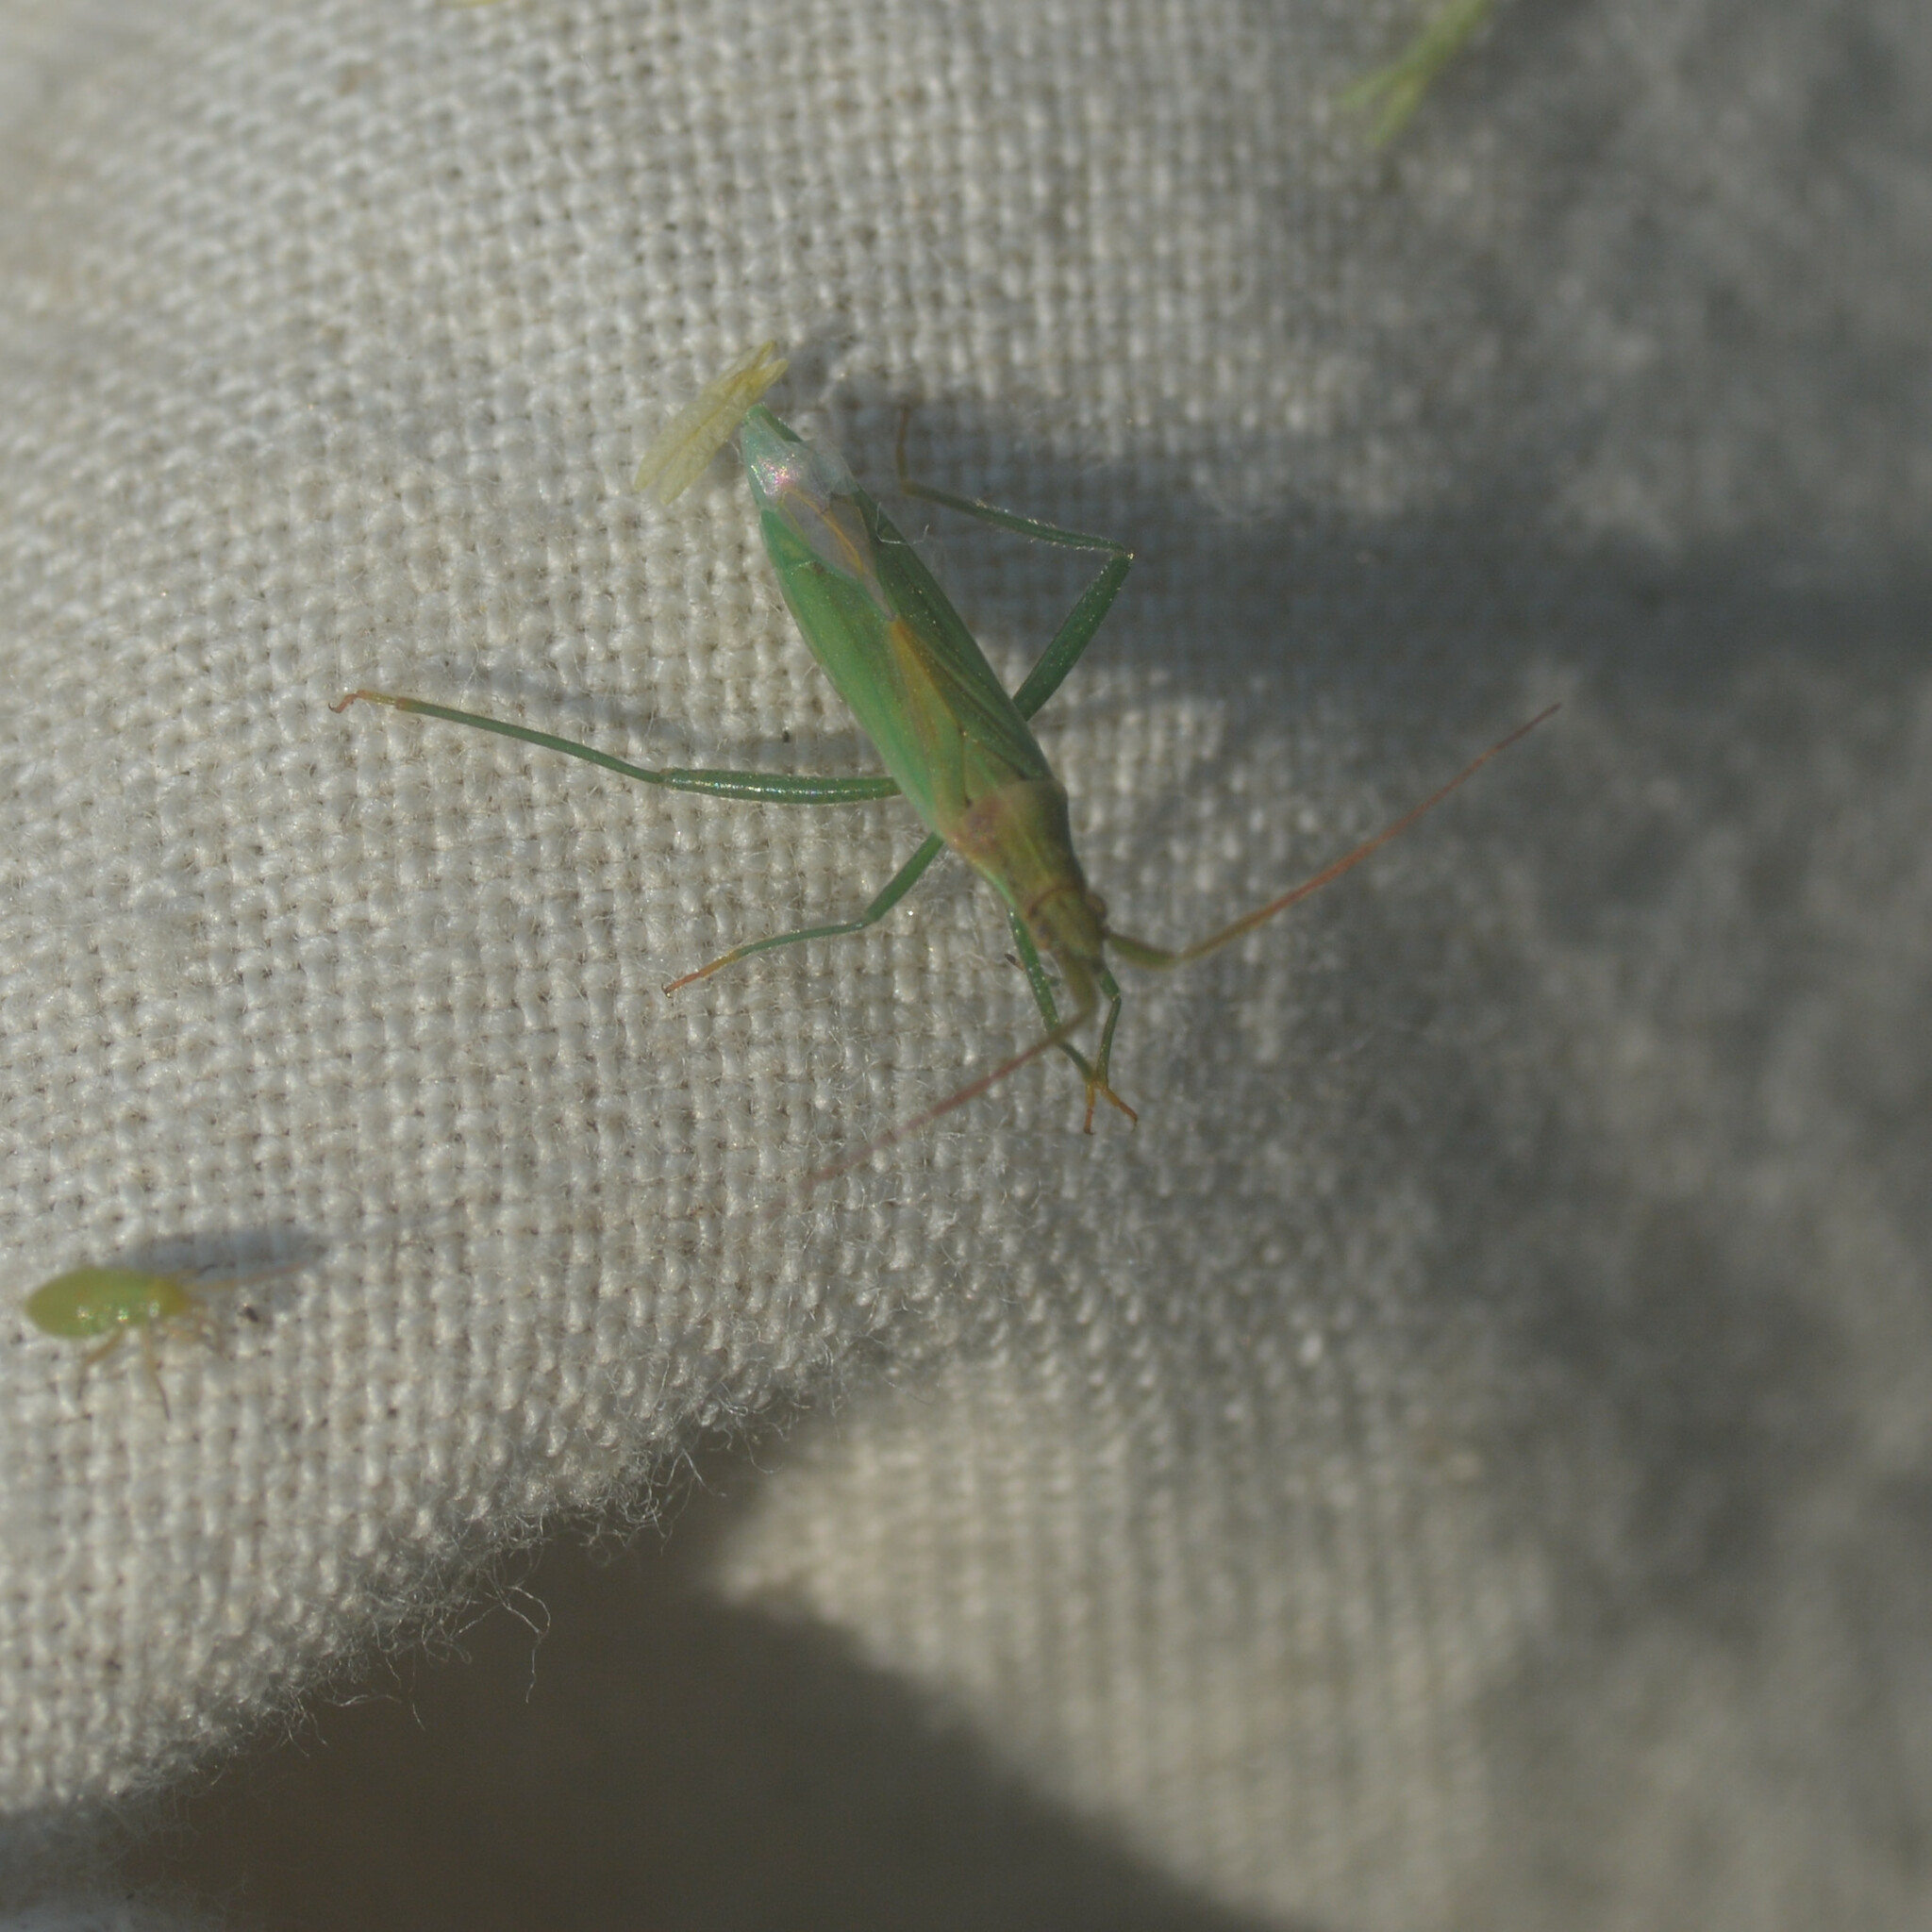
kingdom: Animalia
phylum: Arthropoda
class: Insecta
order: Hemiptera
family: Miridae
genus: Stenodema
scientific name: Stenodema laevigata
